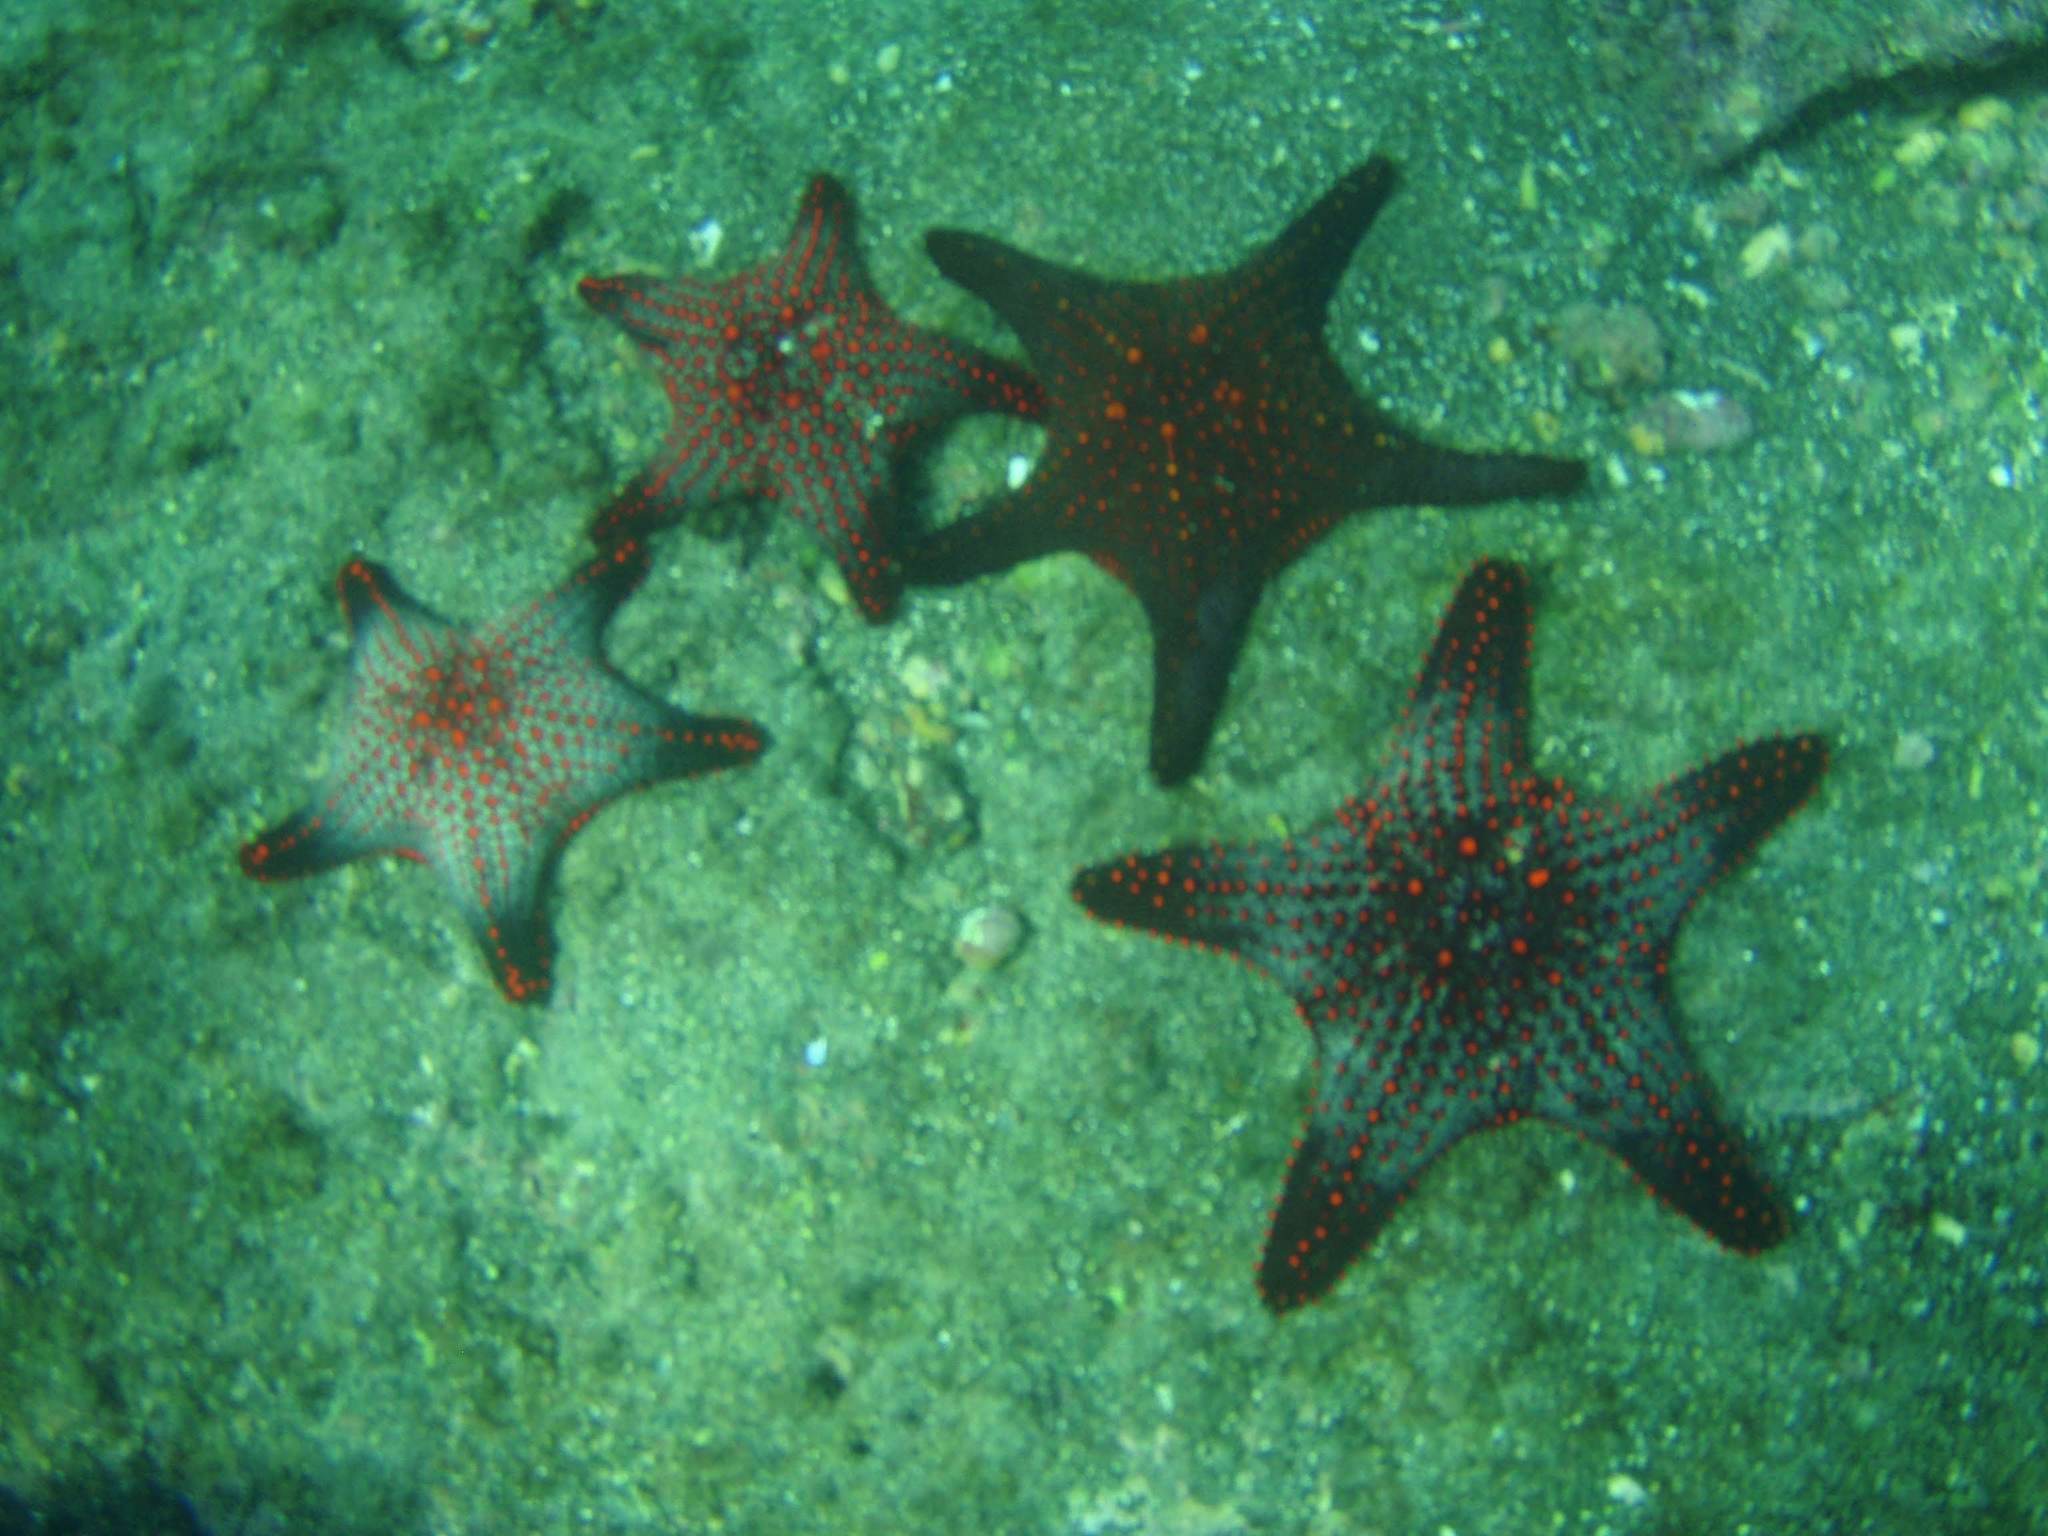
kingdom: Animalia
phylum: Echinodermata
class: Asteroidea
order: Valvatida
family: Oreasteridae
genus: Pentaceraster
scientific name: Pentaceraster cumingi
